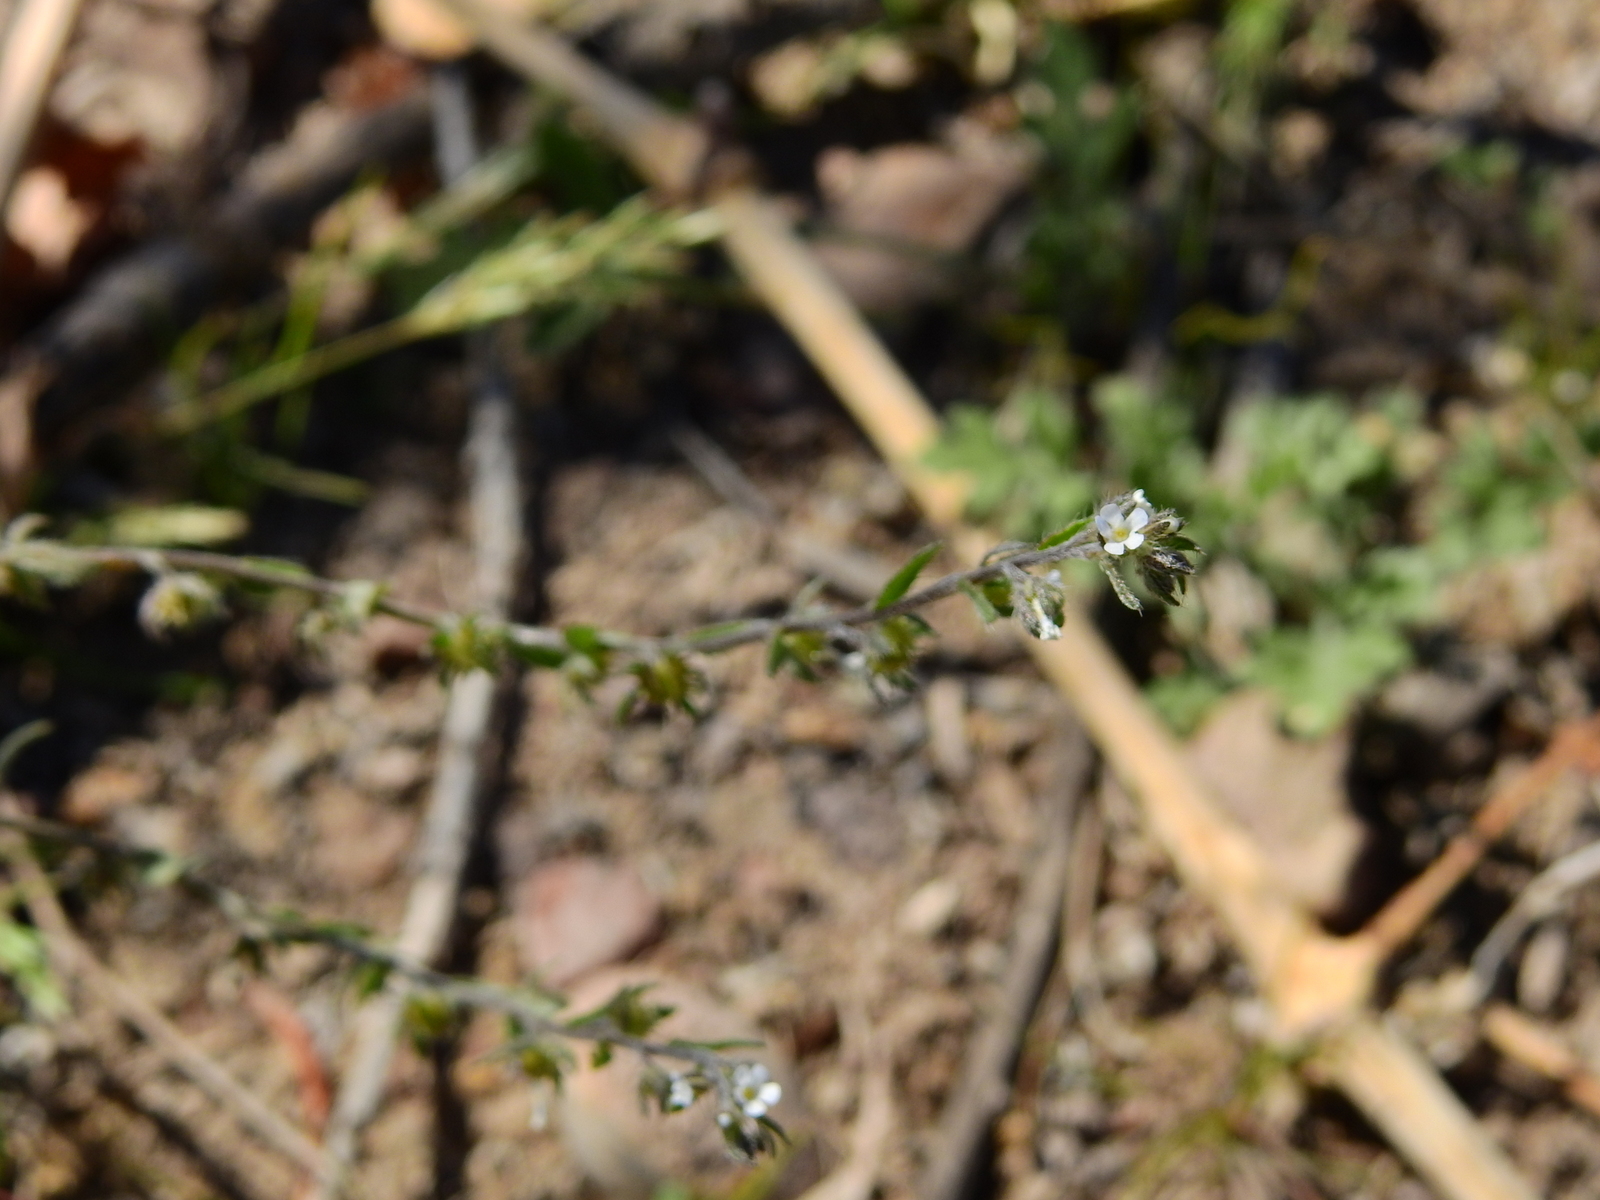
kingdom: Plantae
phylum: Tracheophyta
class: Magnoliopsida
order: Boraginales
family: Boraginaceae
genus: Lappula
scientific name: Lappula redowskii
